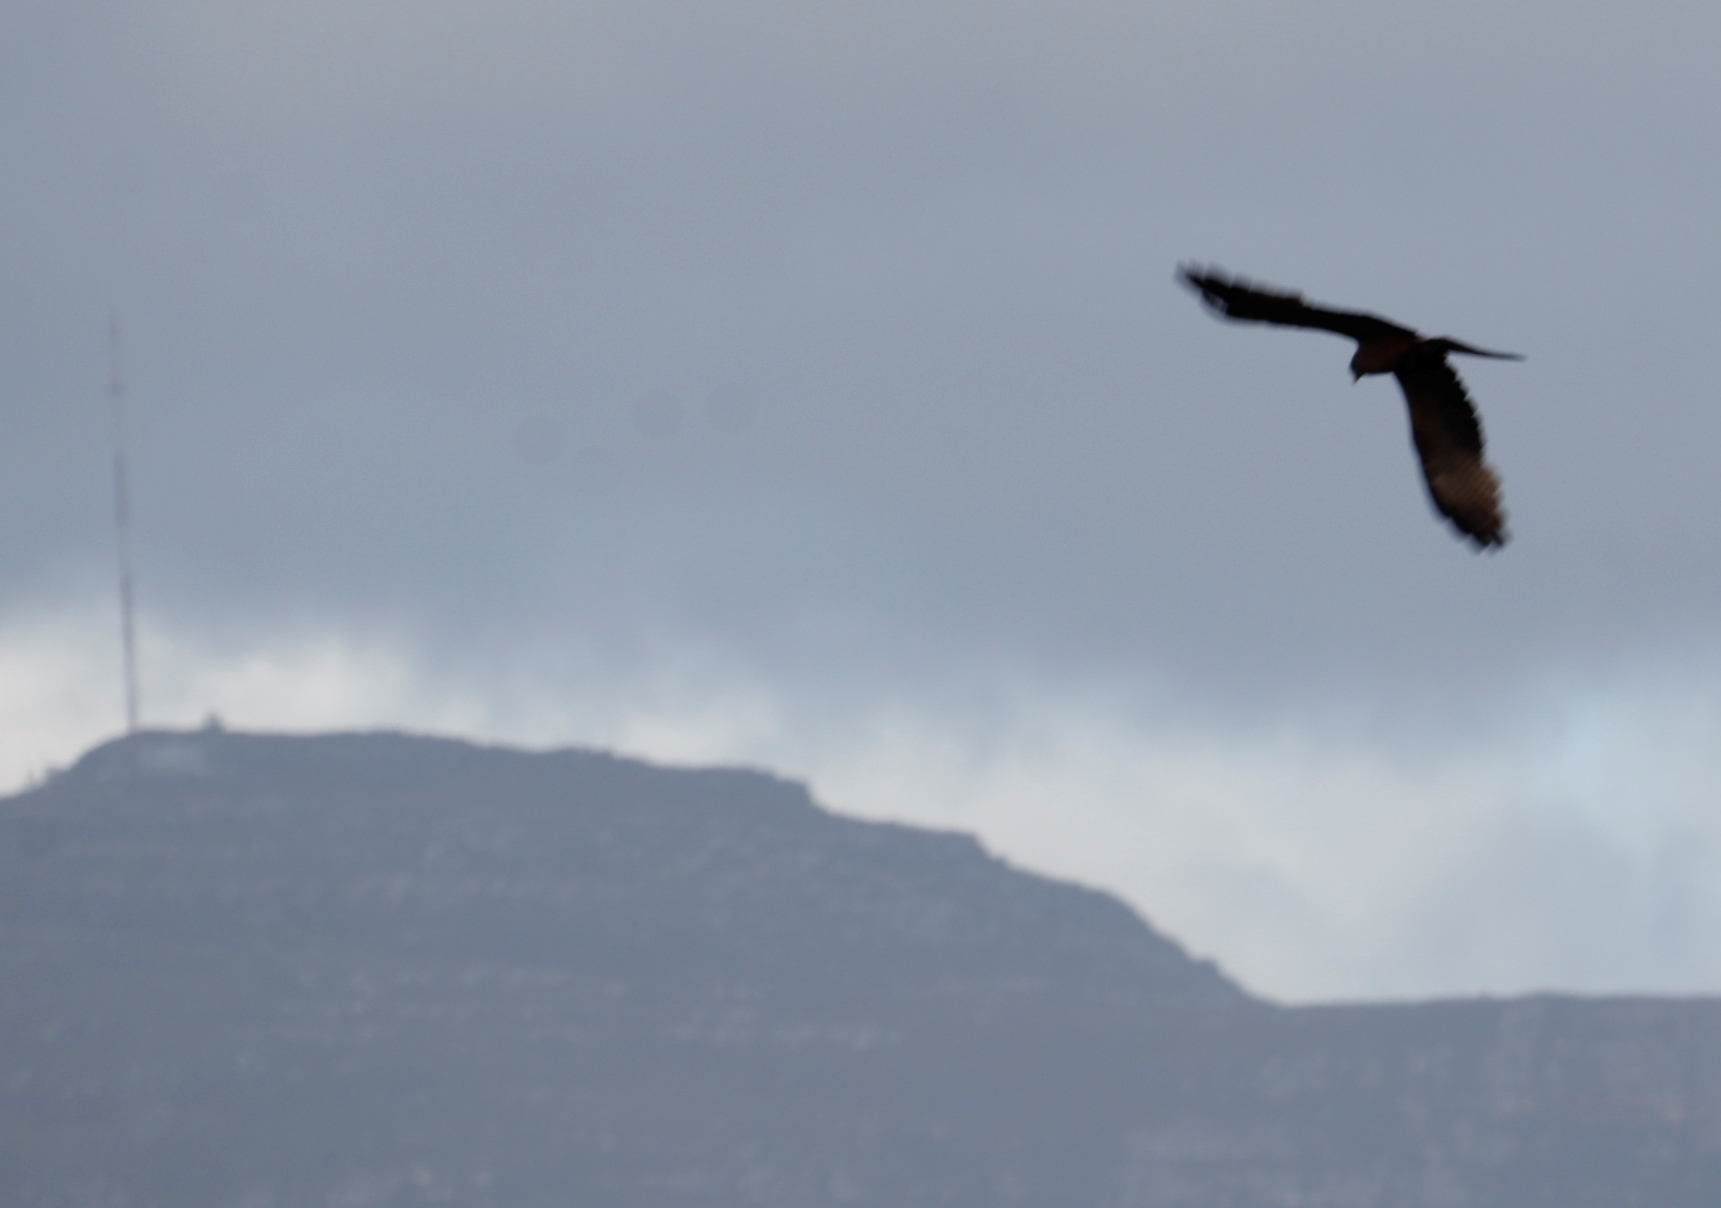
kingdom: Animalia
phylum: Chordata
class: Aves
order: Accipitriformes
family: Accipitridae
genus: Milvus
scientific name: Milvus migrans
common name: Black kite
